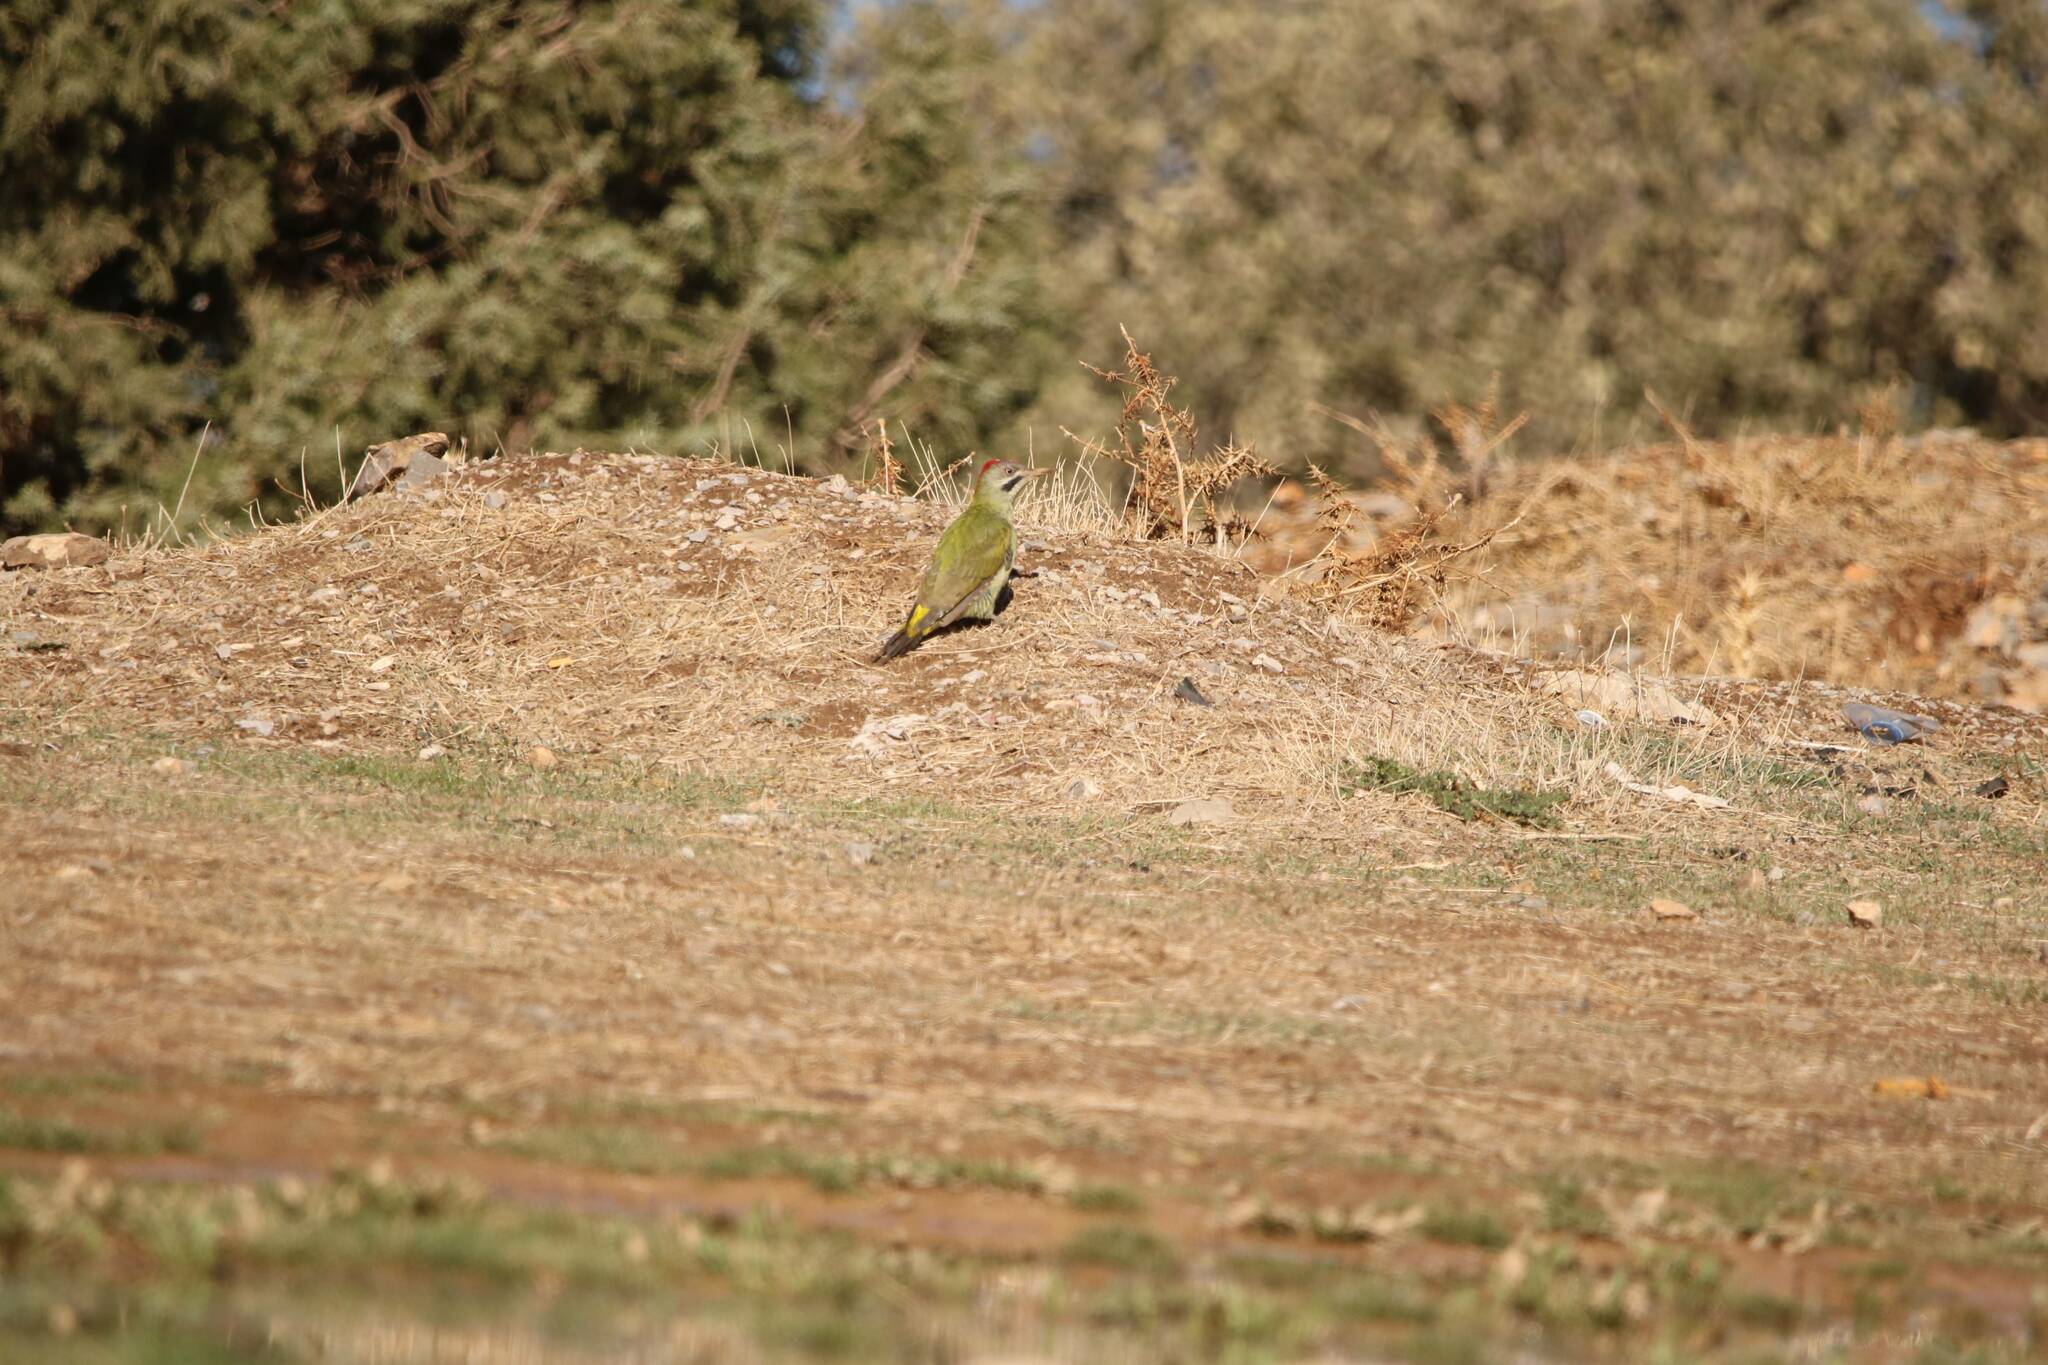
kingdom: Animalia
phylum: Chordata
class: Aves
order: Piciformes
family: Picidae
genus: Picus
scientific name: Picus vaillantii
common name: Levaillant's woodpecker
